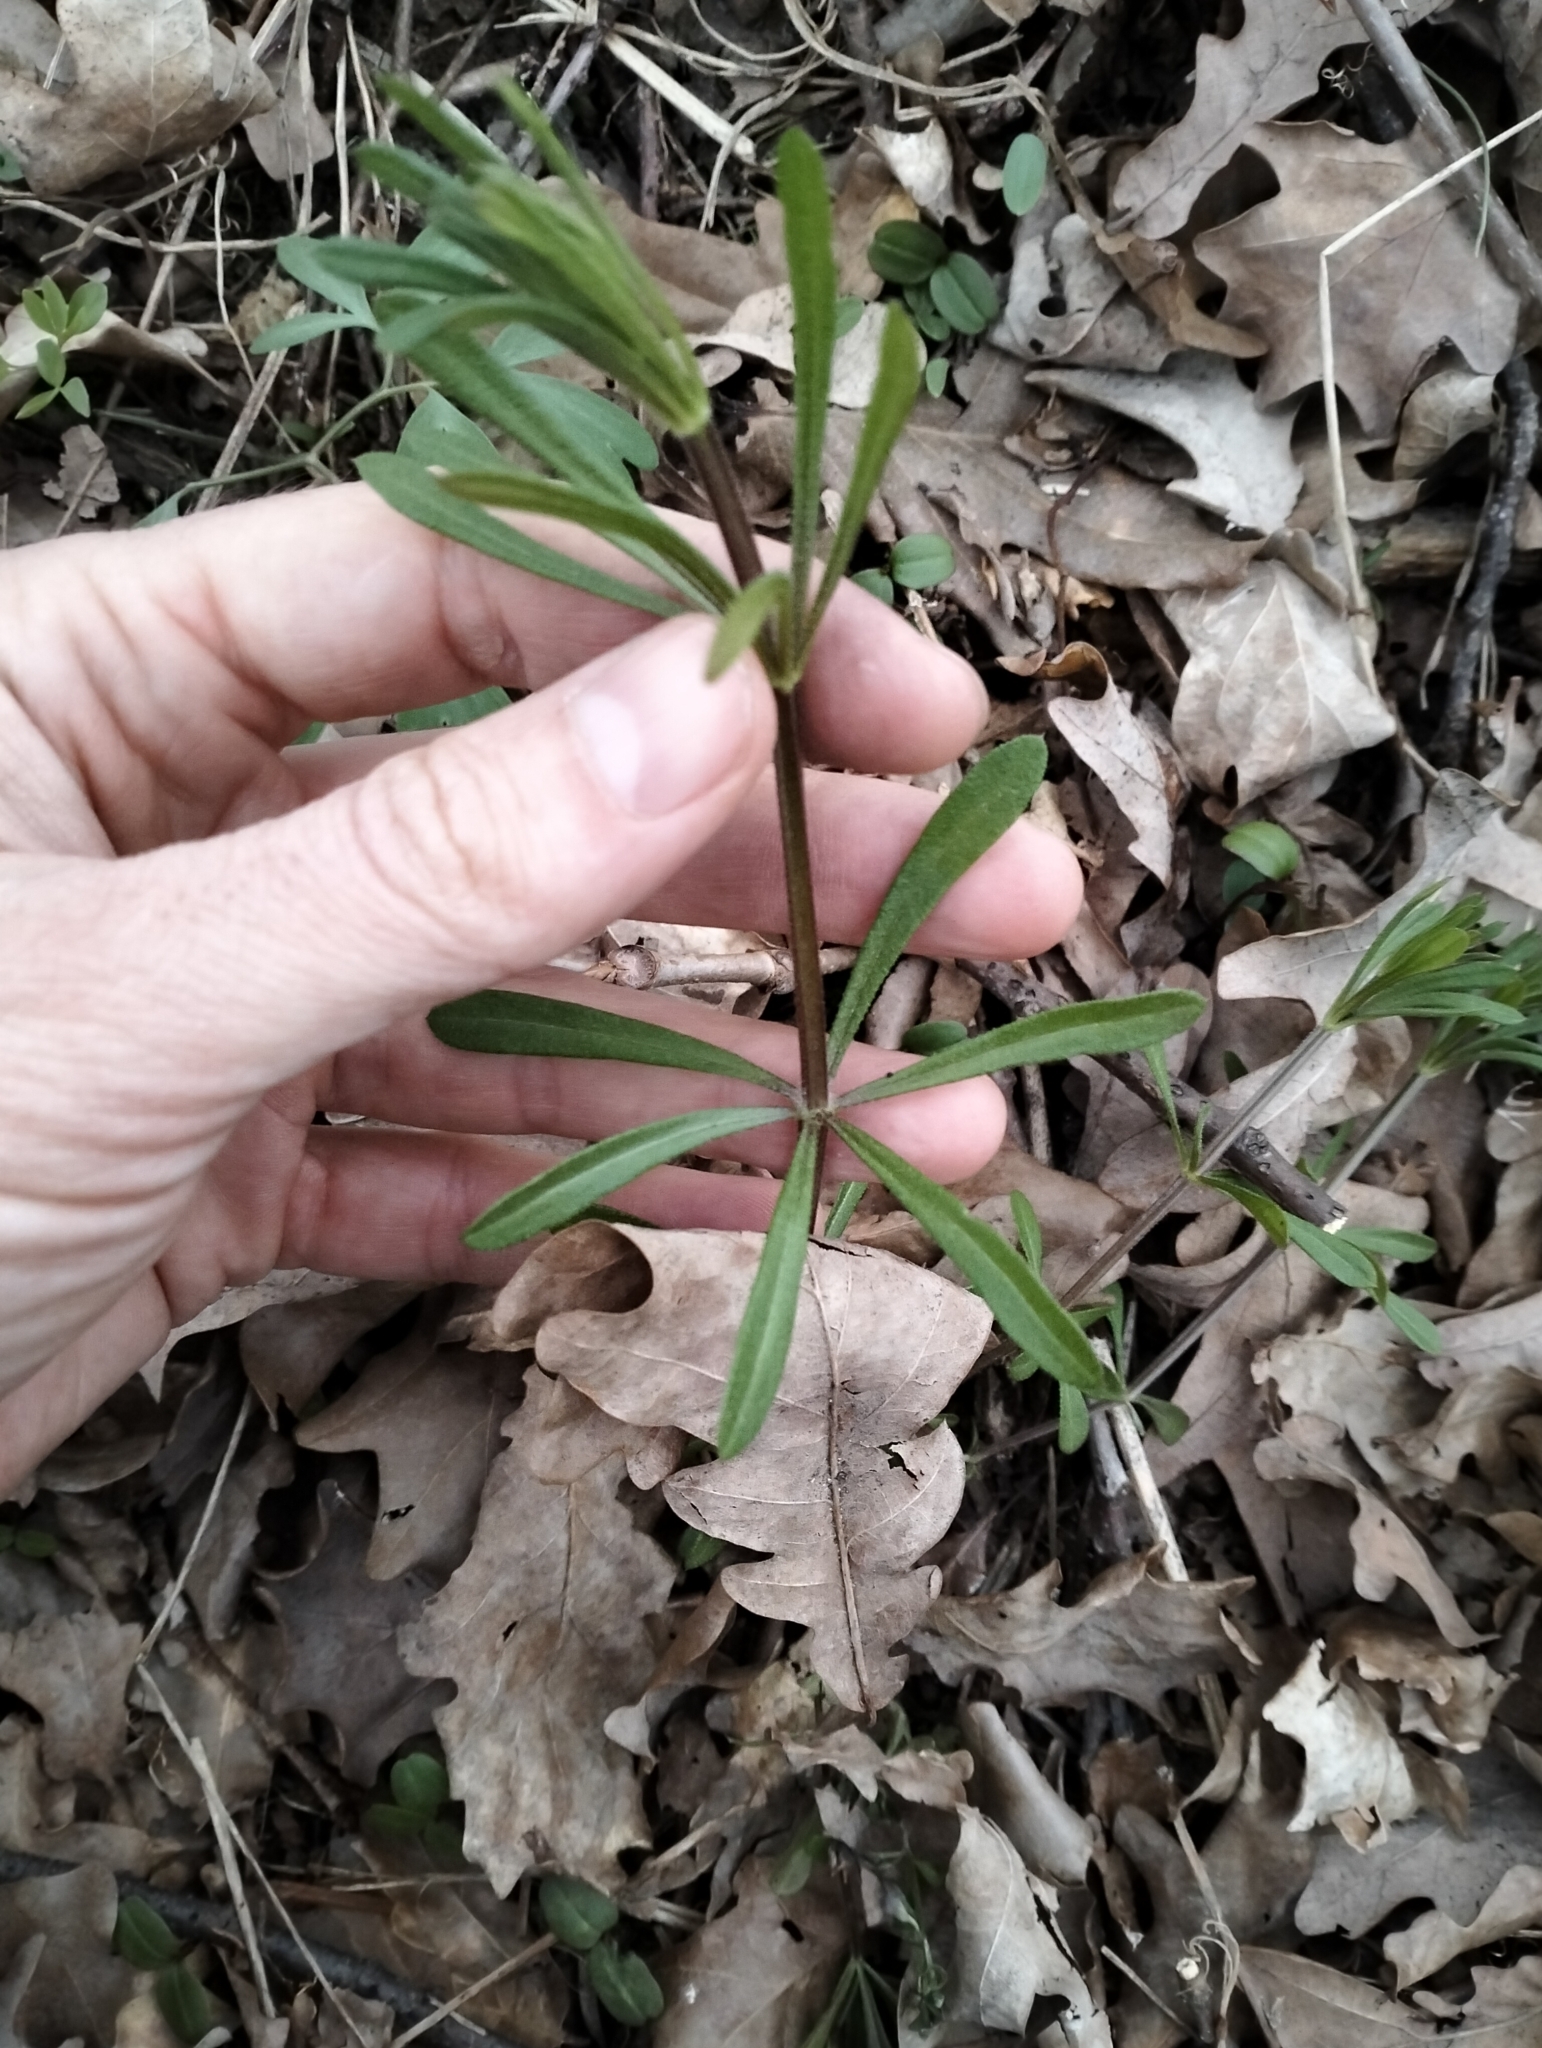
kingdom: Plantae
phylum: Tracheophyta
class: Magnoliopsida
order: Gentianales
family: Rubiaceae
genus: Galium
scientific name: Galium aparine
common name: Cleavers
